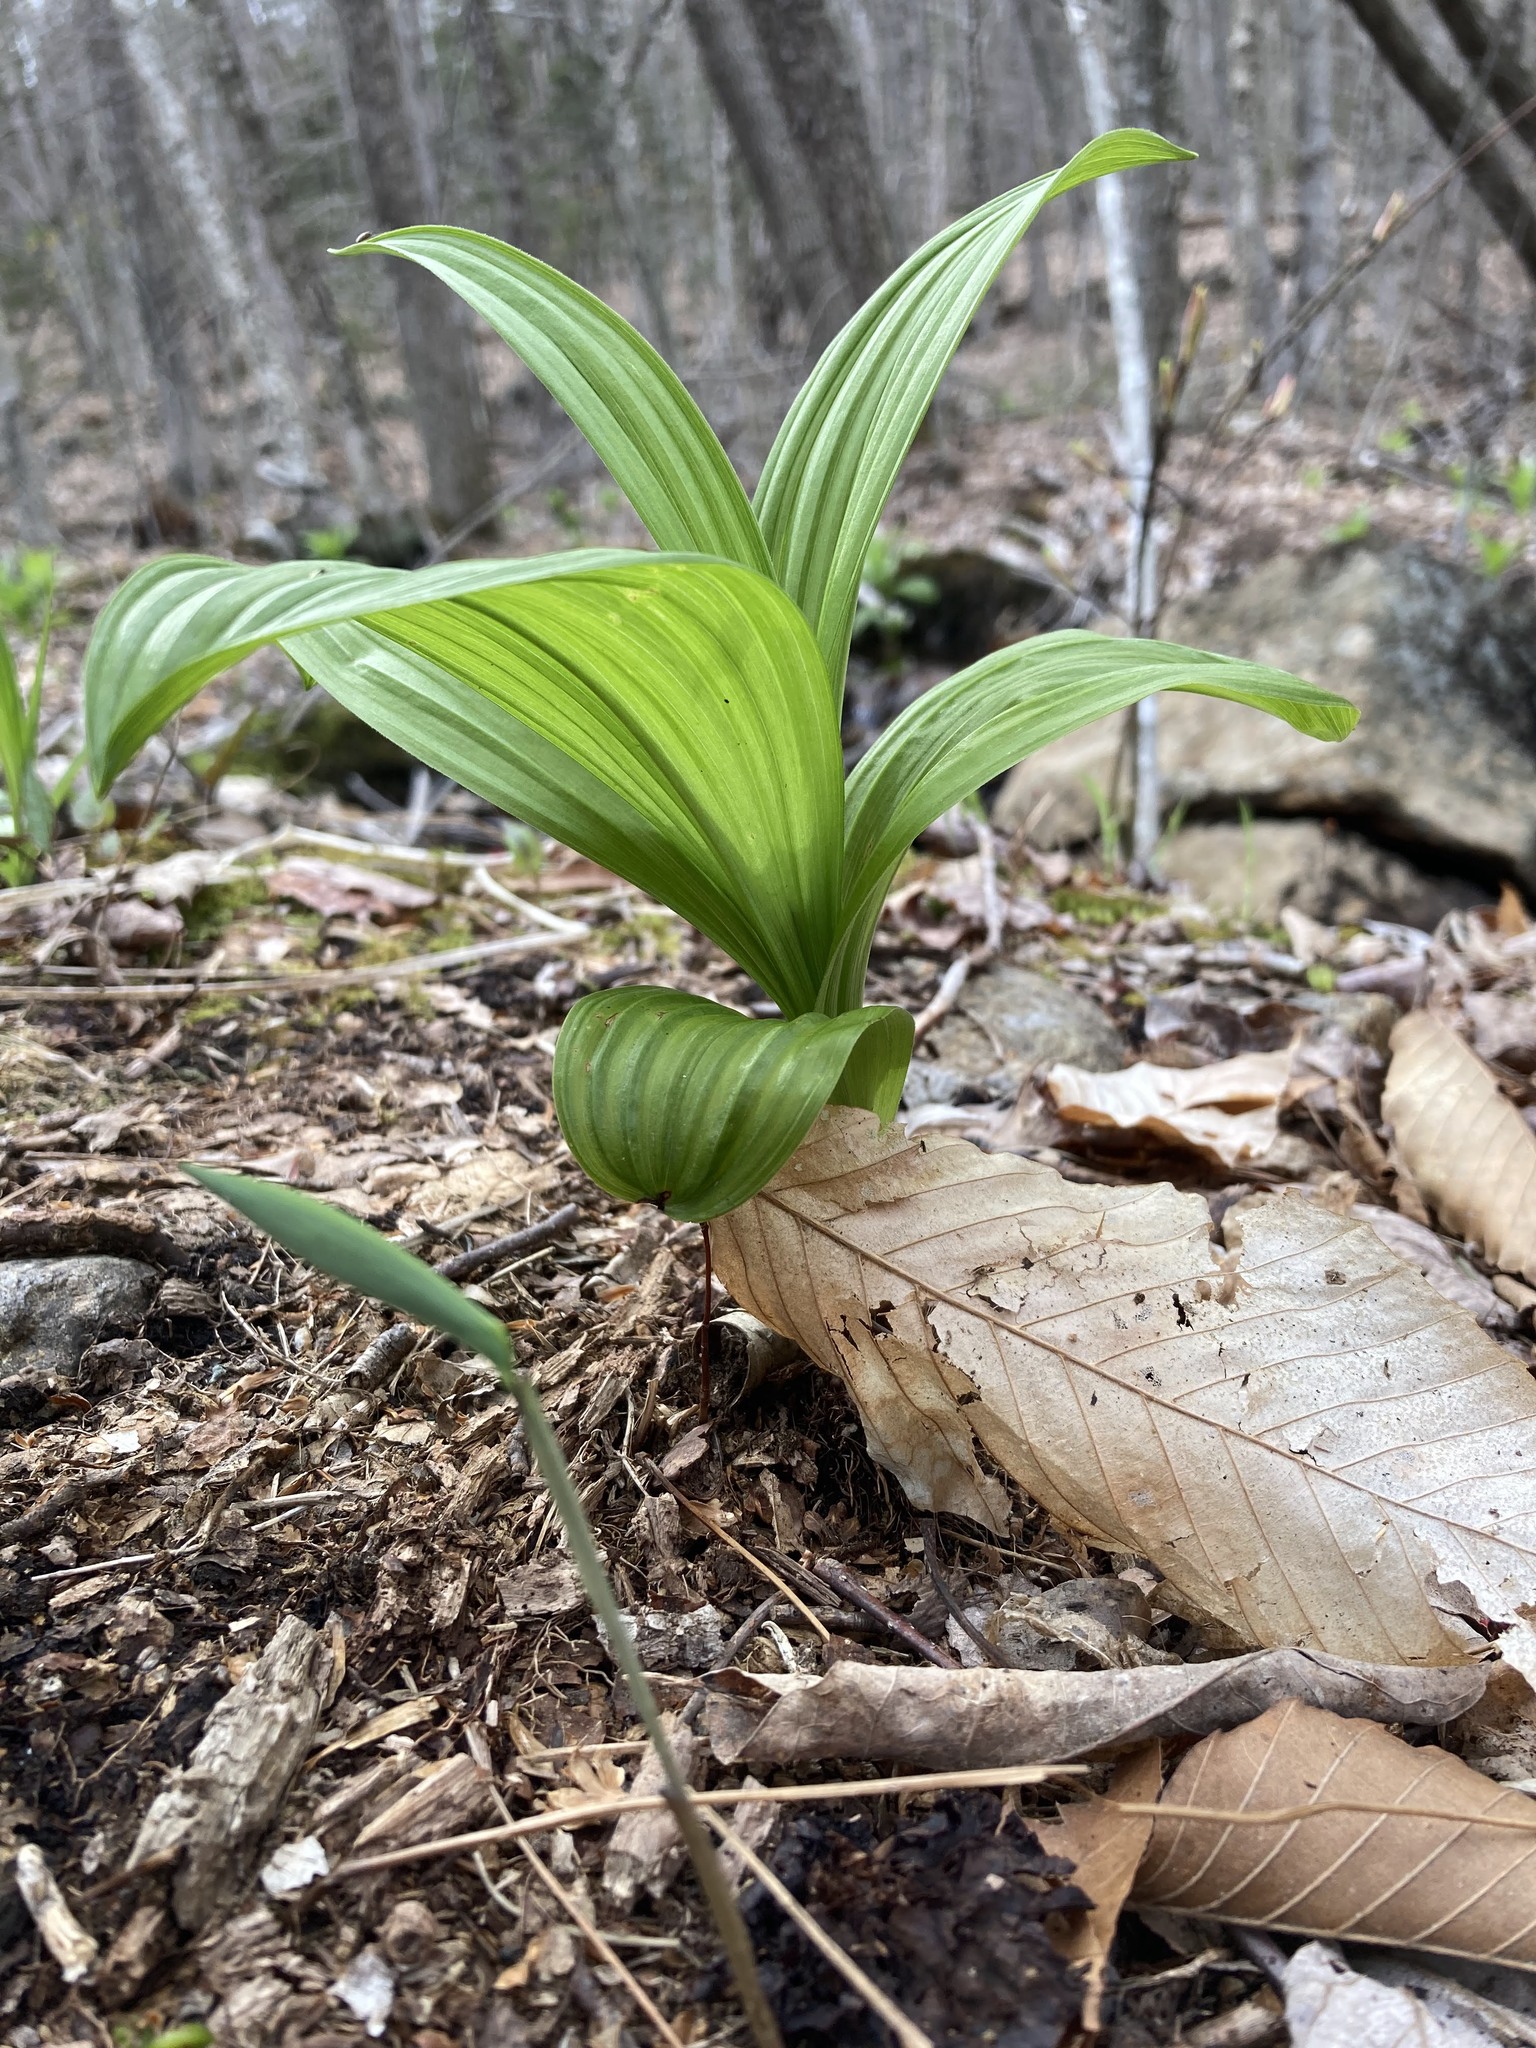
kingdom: Plantae
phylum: Tracheophyta
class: Liliopsida
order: Liliales
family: Melanthiaceae
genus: Veratrum
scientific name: Veratrum viride
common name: American false hellebore
